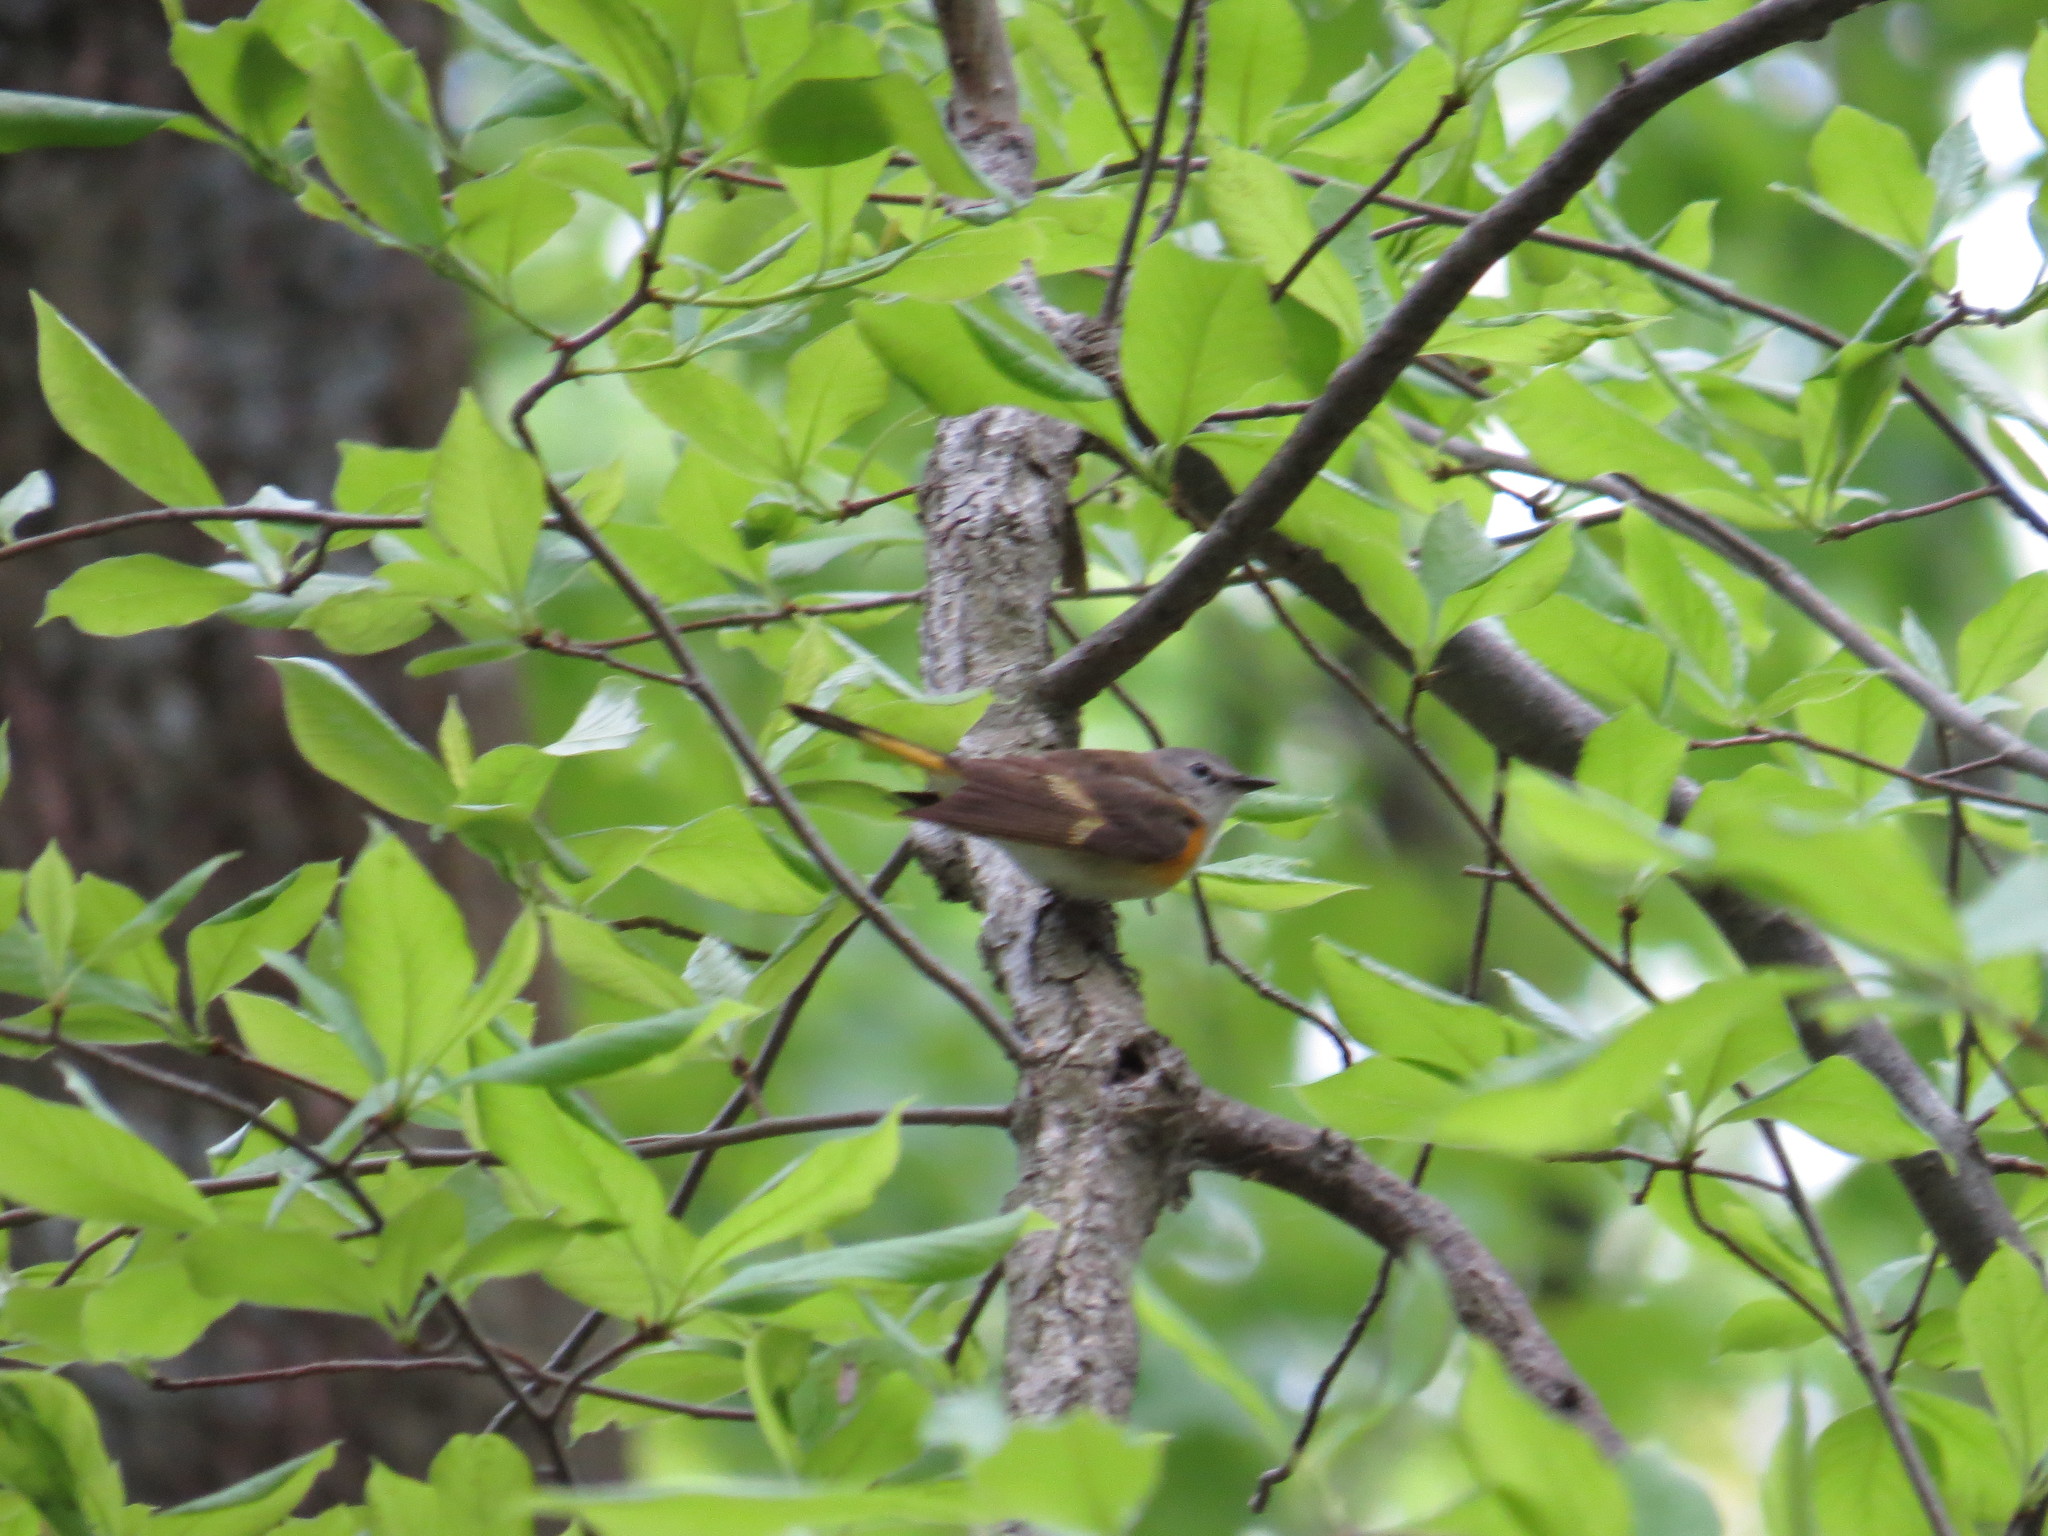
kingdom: Animalia
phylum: Chordata
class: Aves
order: Passeriformes
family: Parulidae
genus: Setophaga
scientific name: Setophaga ruticilla
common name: American redstart
